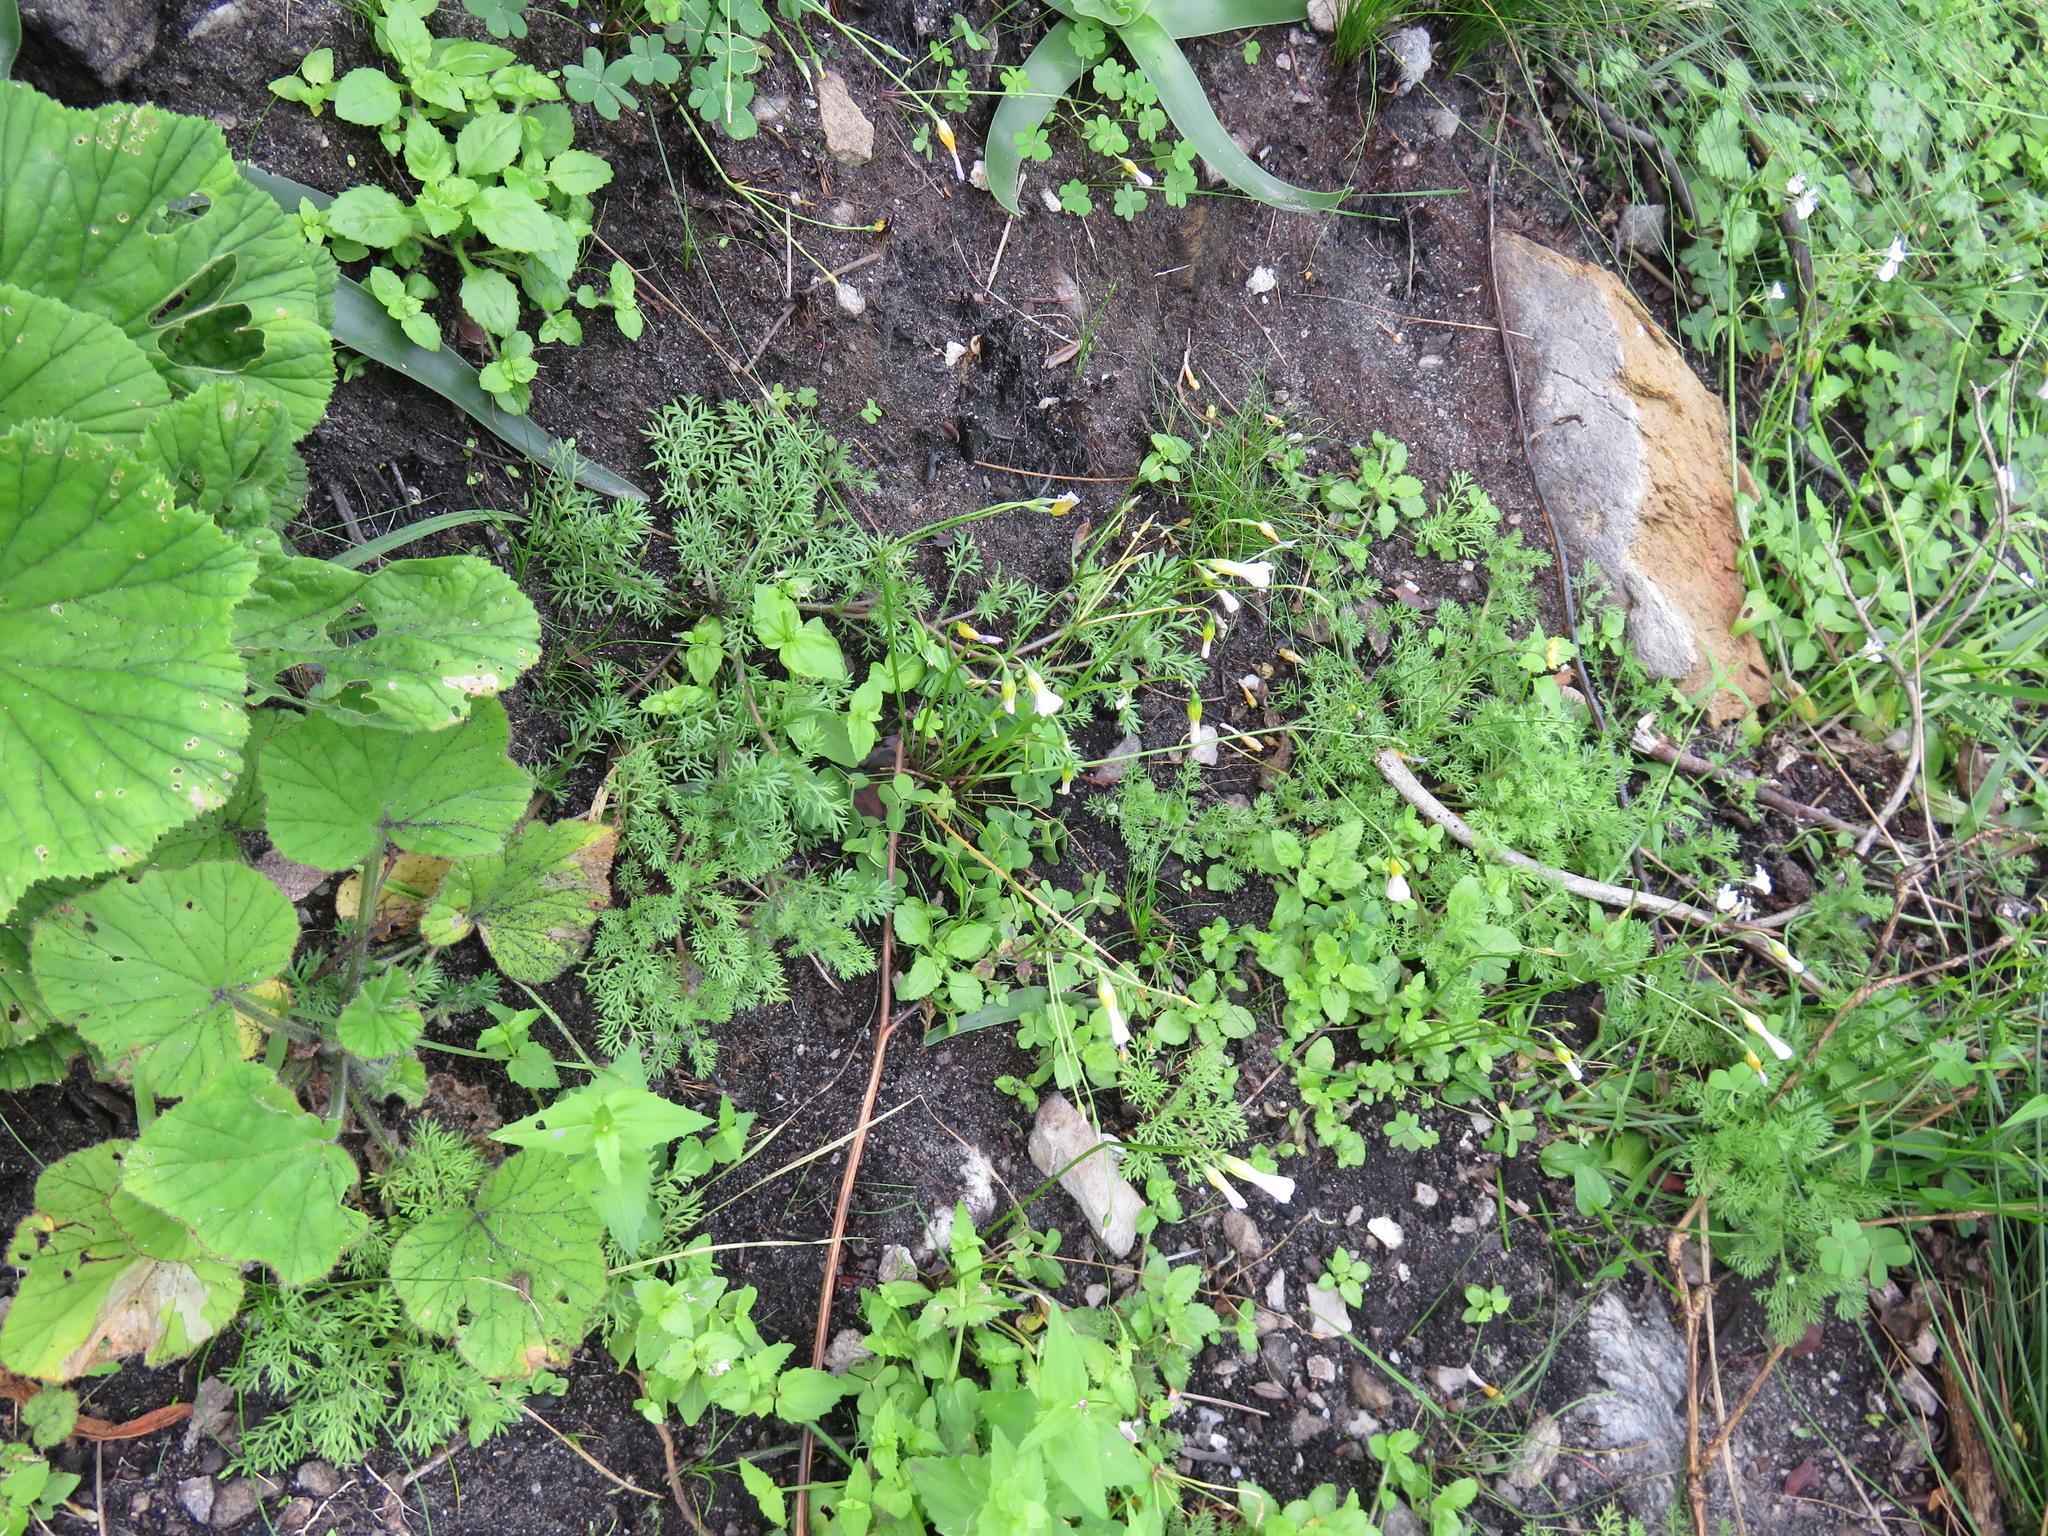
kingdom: Plantae
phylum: Tracheophyta
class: Magnoliopsida
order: Asterales
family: Asteraceae
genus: Cotula
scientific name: Cotula pruinosa
